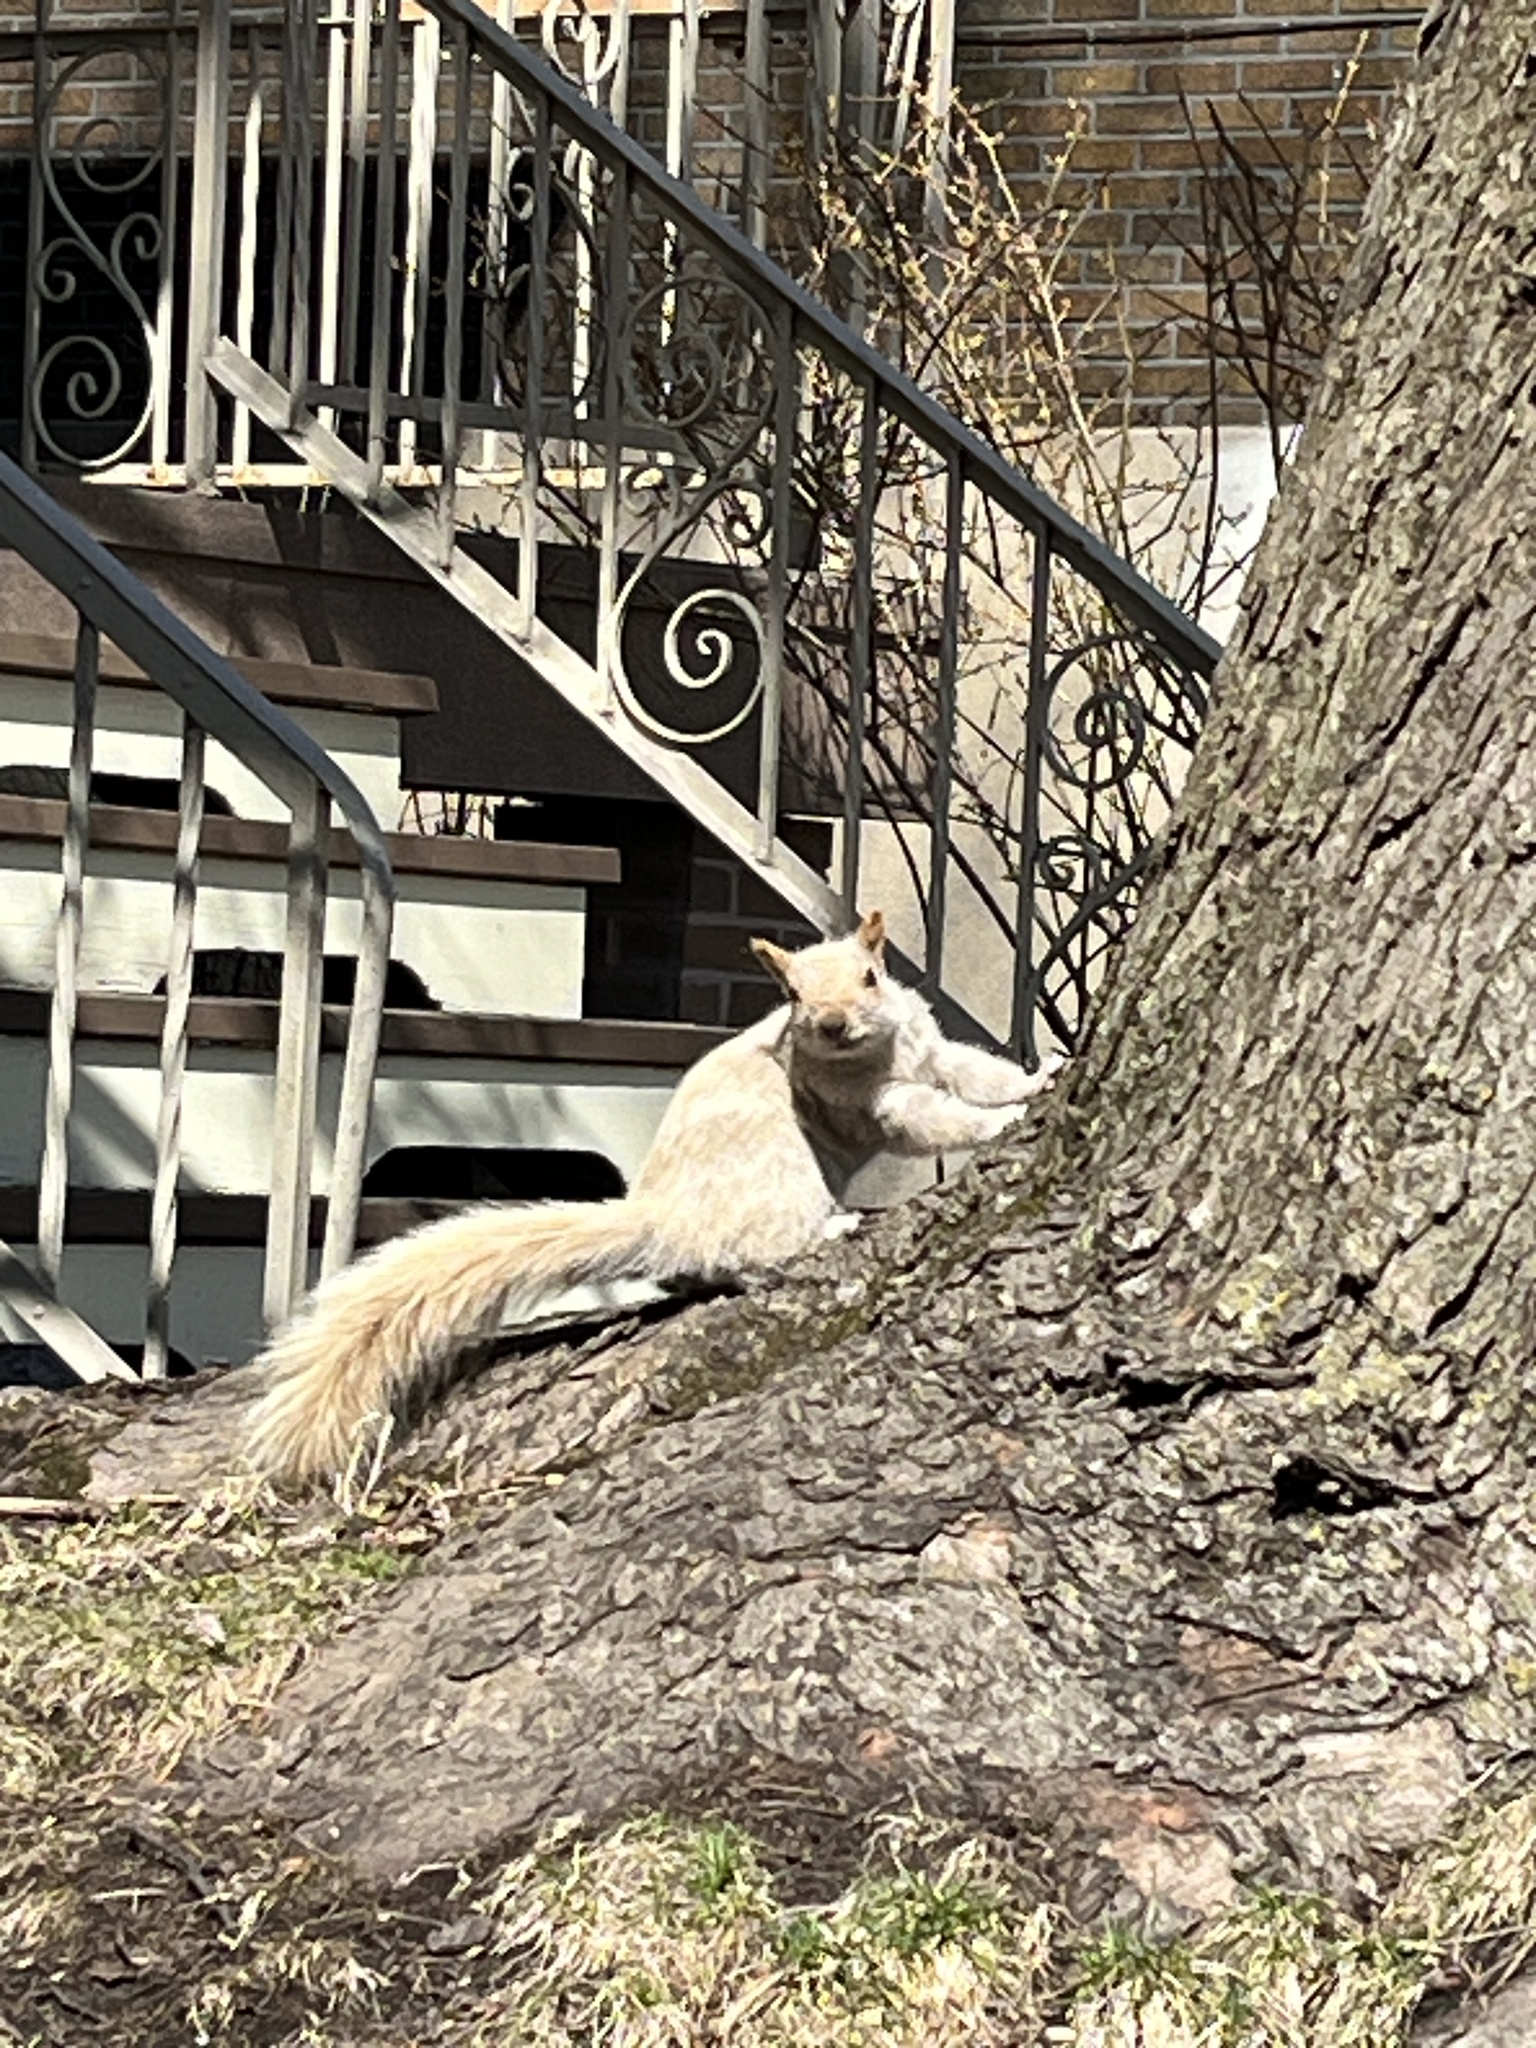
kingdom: Animalia
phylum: Chordata
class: Mammalia
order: Rodentia
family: Sciuridae
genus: Sciurus
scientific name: Sciurus carolinensis
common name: Eastern gray squirrel
